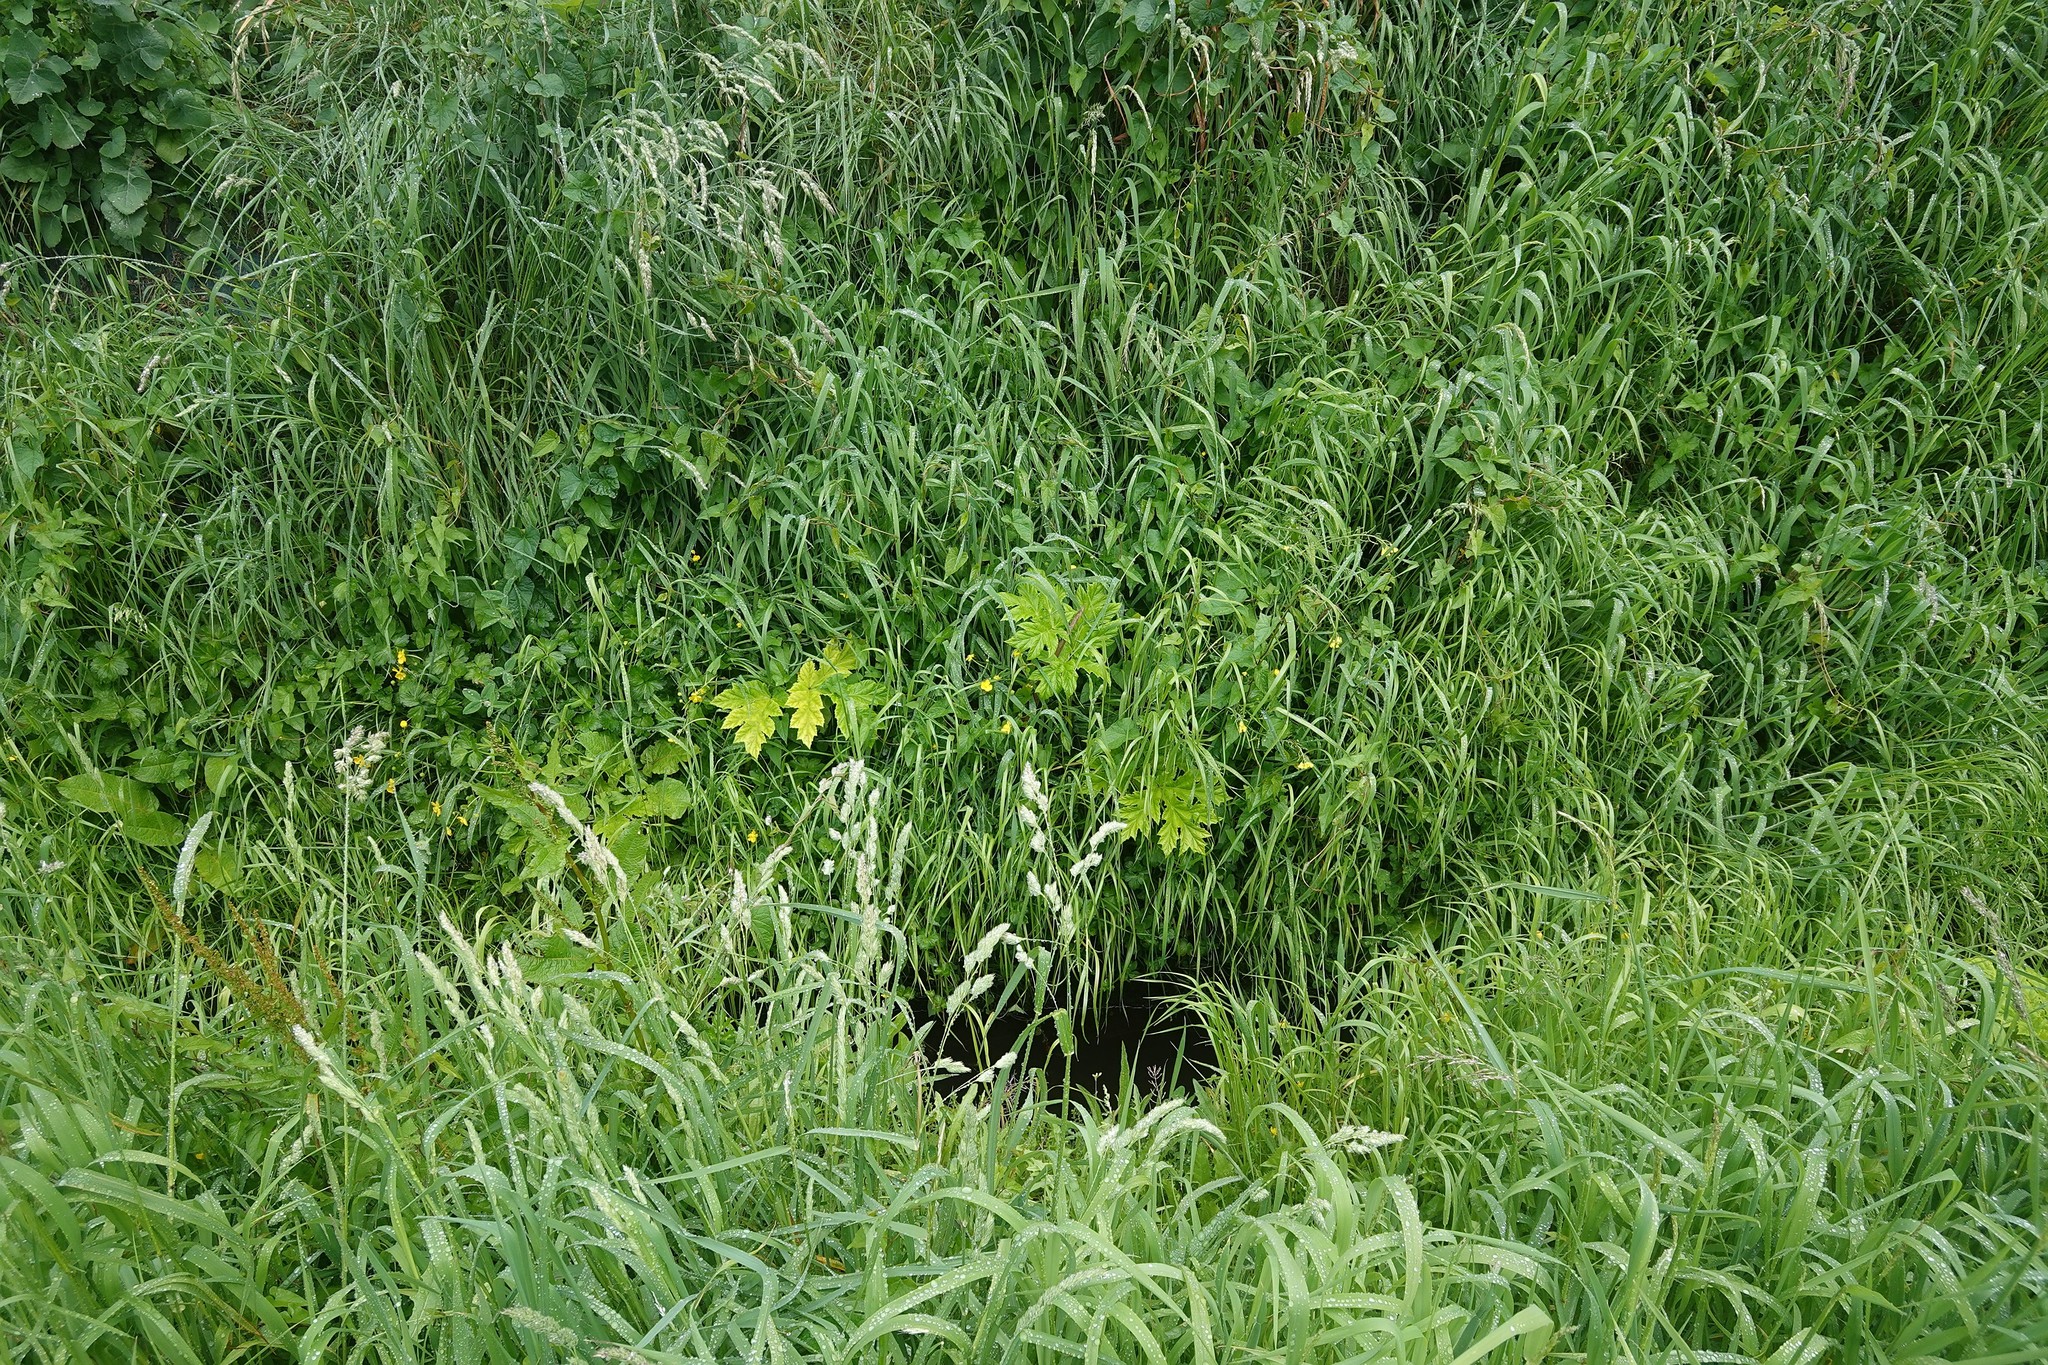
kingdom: Plantae
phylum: Tracheophyta
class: Magnoliopsida
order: Apiales
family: Apiaceae
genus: Heracleum
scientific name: Heracleum mantegazzianum
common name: Giant hogweed
